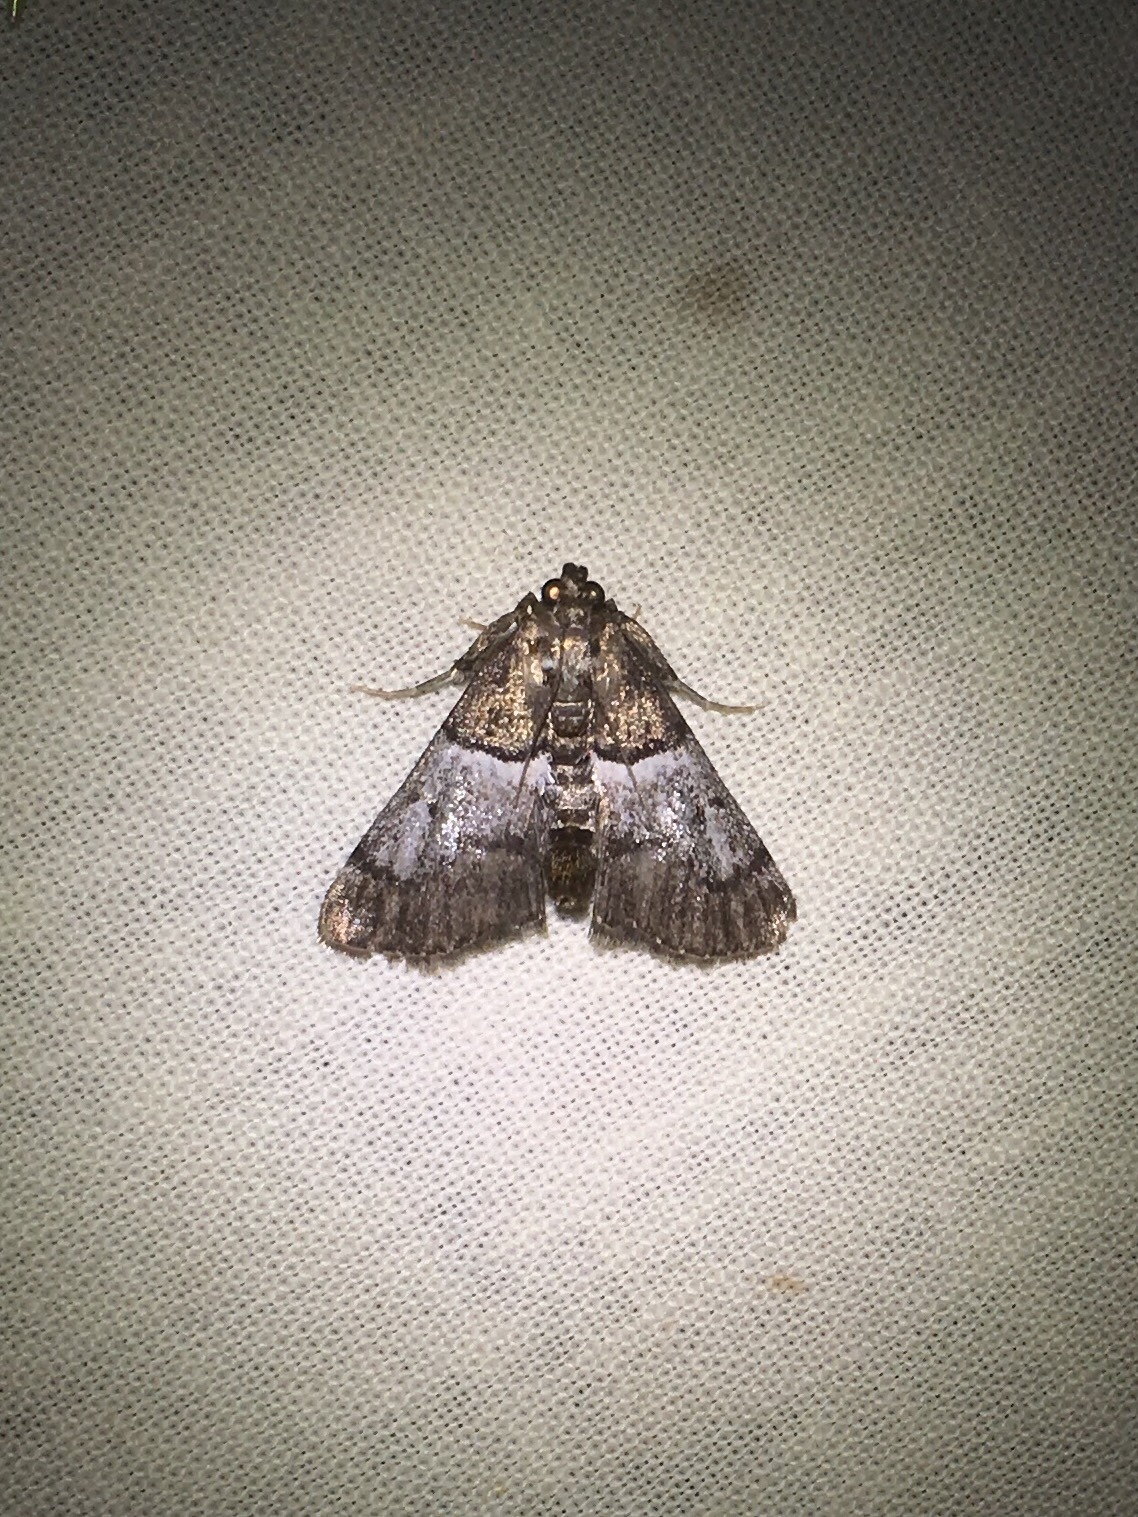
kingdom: Animalia
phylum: Arthropoda
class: Insecta
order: Lepidoptera
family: Pyralidae
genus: Macalla
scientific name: Macalla zelleri
